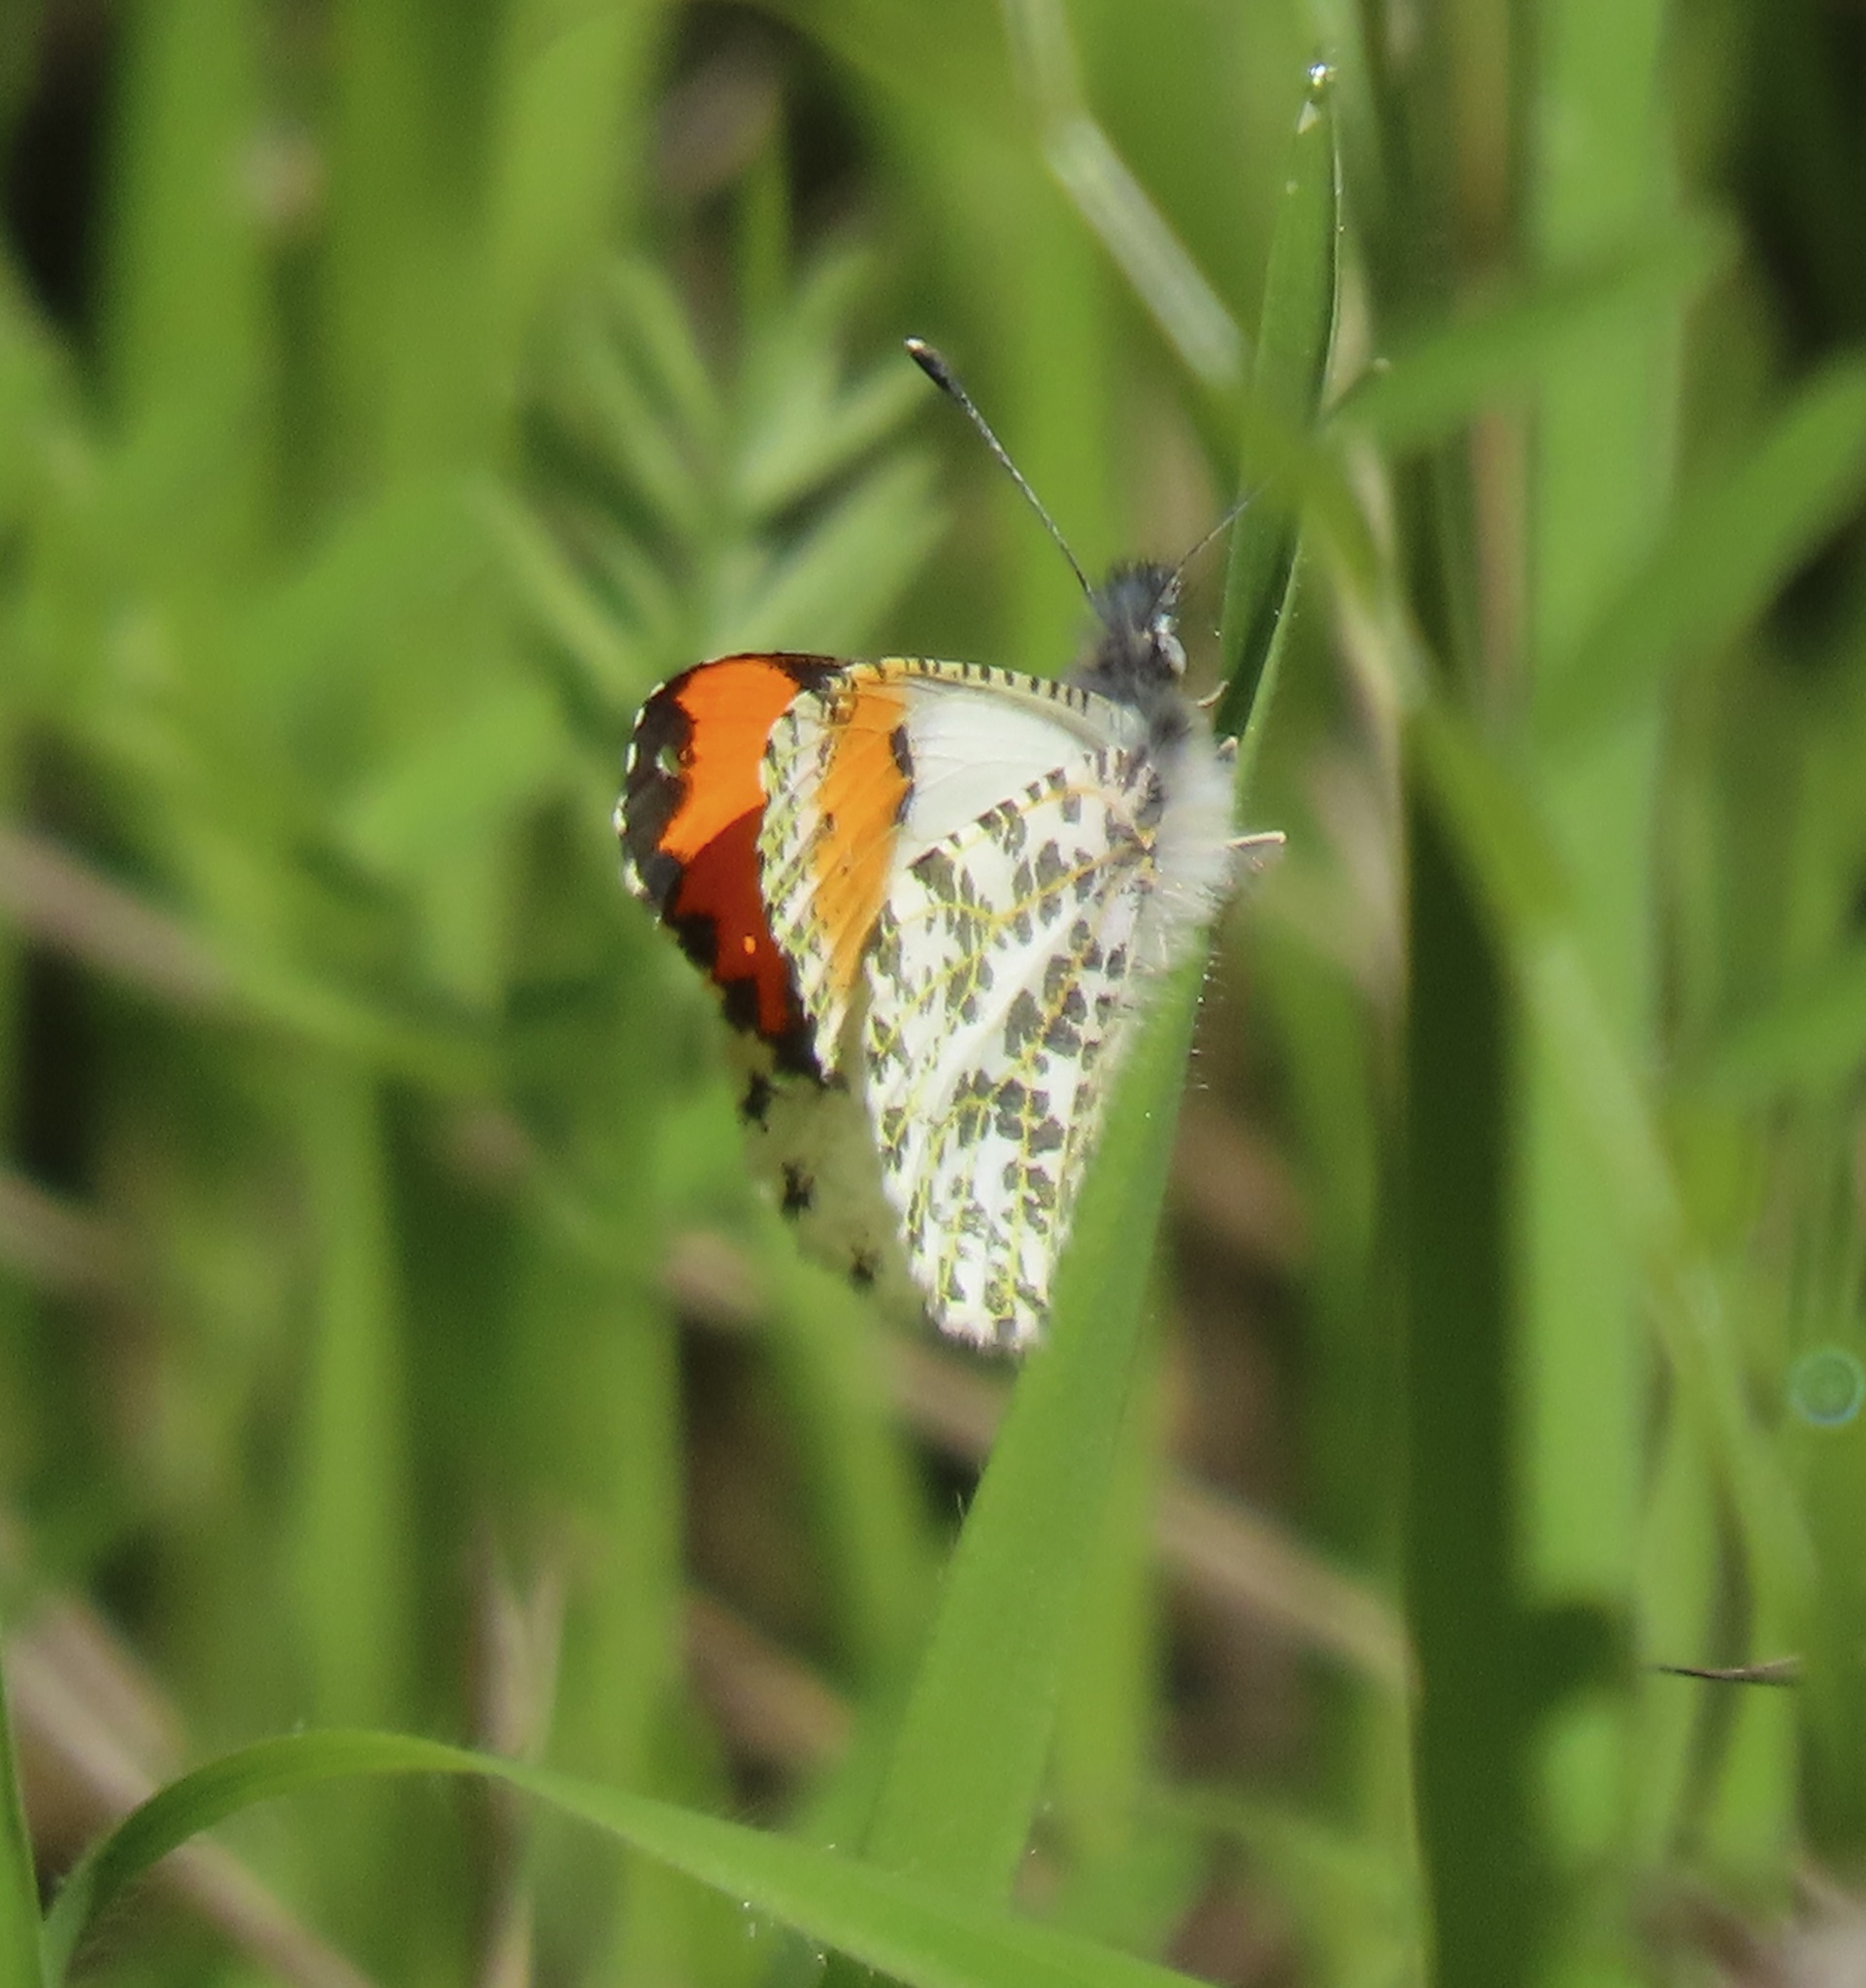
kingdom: Animalia
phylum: Arthropoda
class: Insecta
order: Lepidoptera
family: Pieridae
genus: Anthocharis
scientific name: Anthocharis sara
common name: Sara's orangetip
